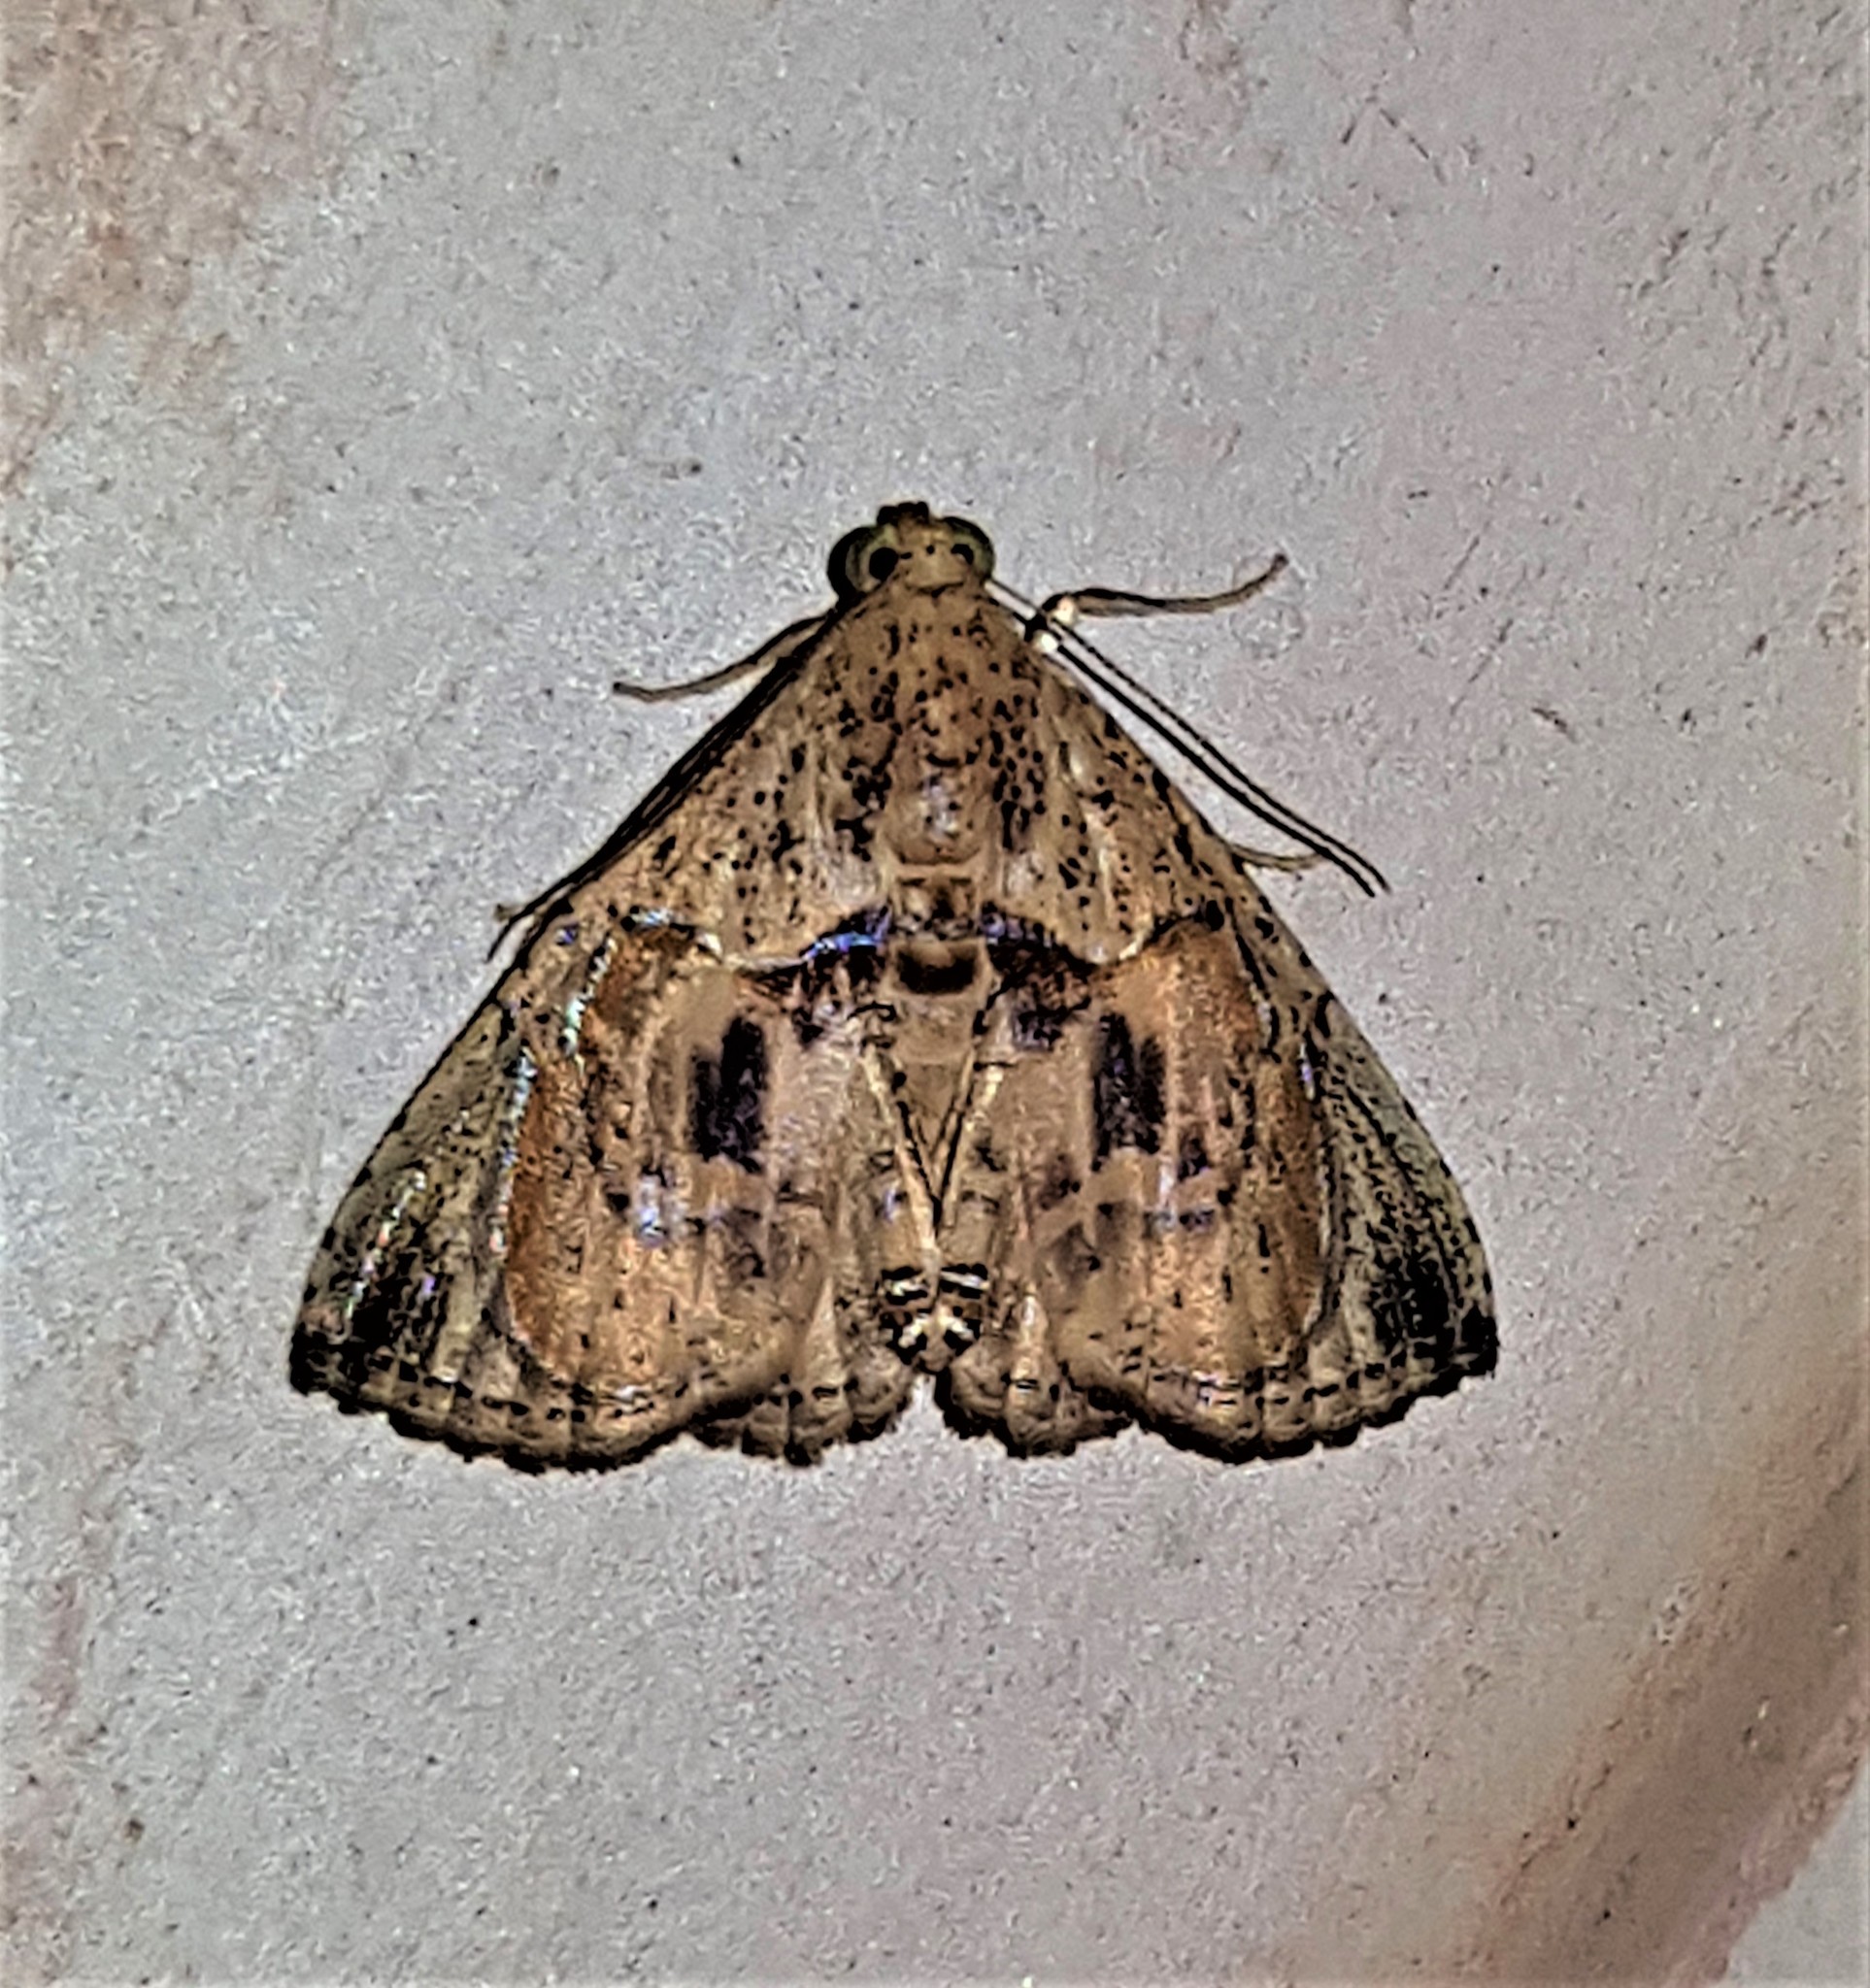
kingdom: Animalia
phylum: Arthropoda
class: Insecta
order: Lepidoptera
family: Erebidae
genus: Calydia
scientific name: Calydia osseata
